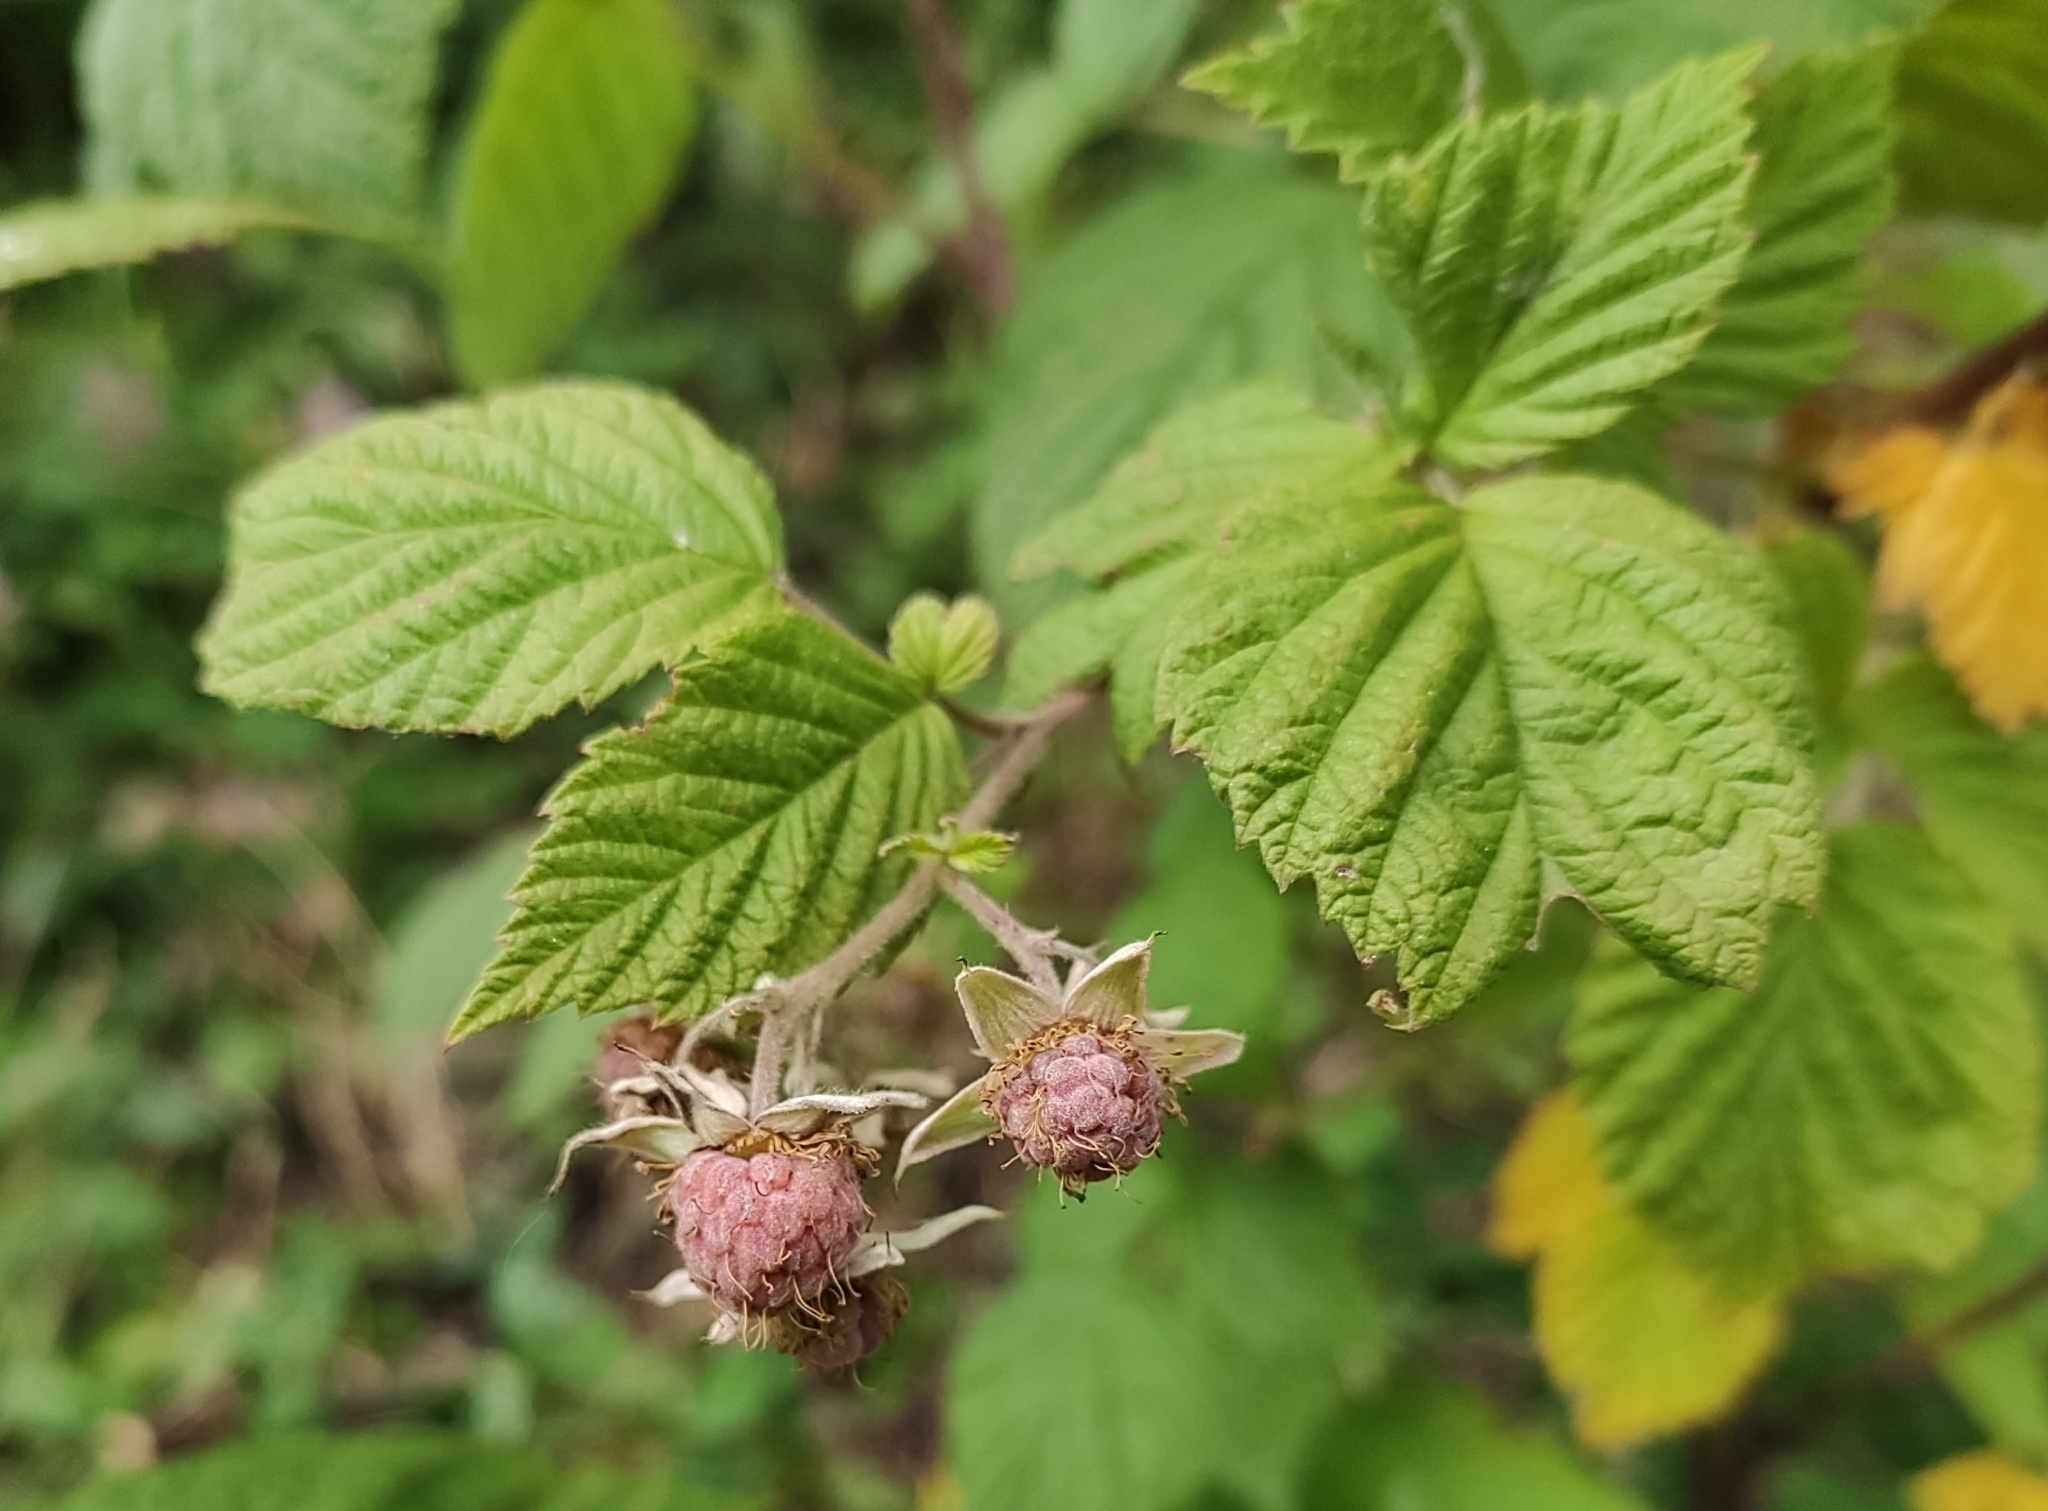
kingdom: Plantae
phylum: Tracheophyta
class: Magnoliopsida
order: Rosales
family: Rosaceae
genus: Rubus
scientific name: Rubus idaeus
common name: Raspberry
